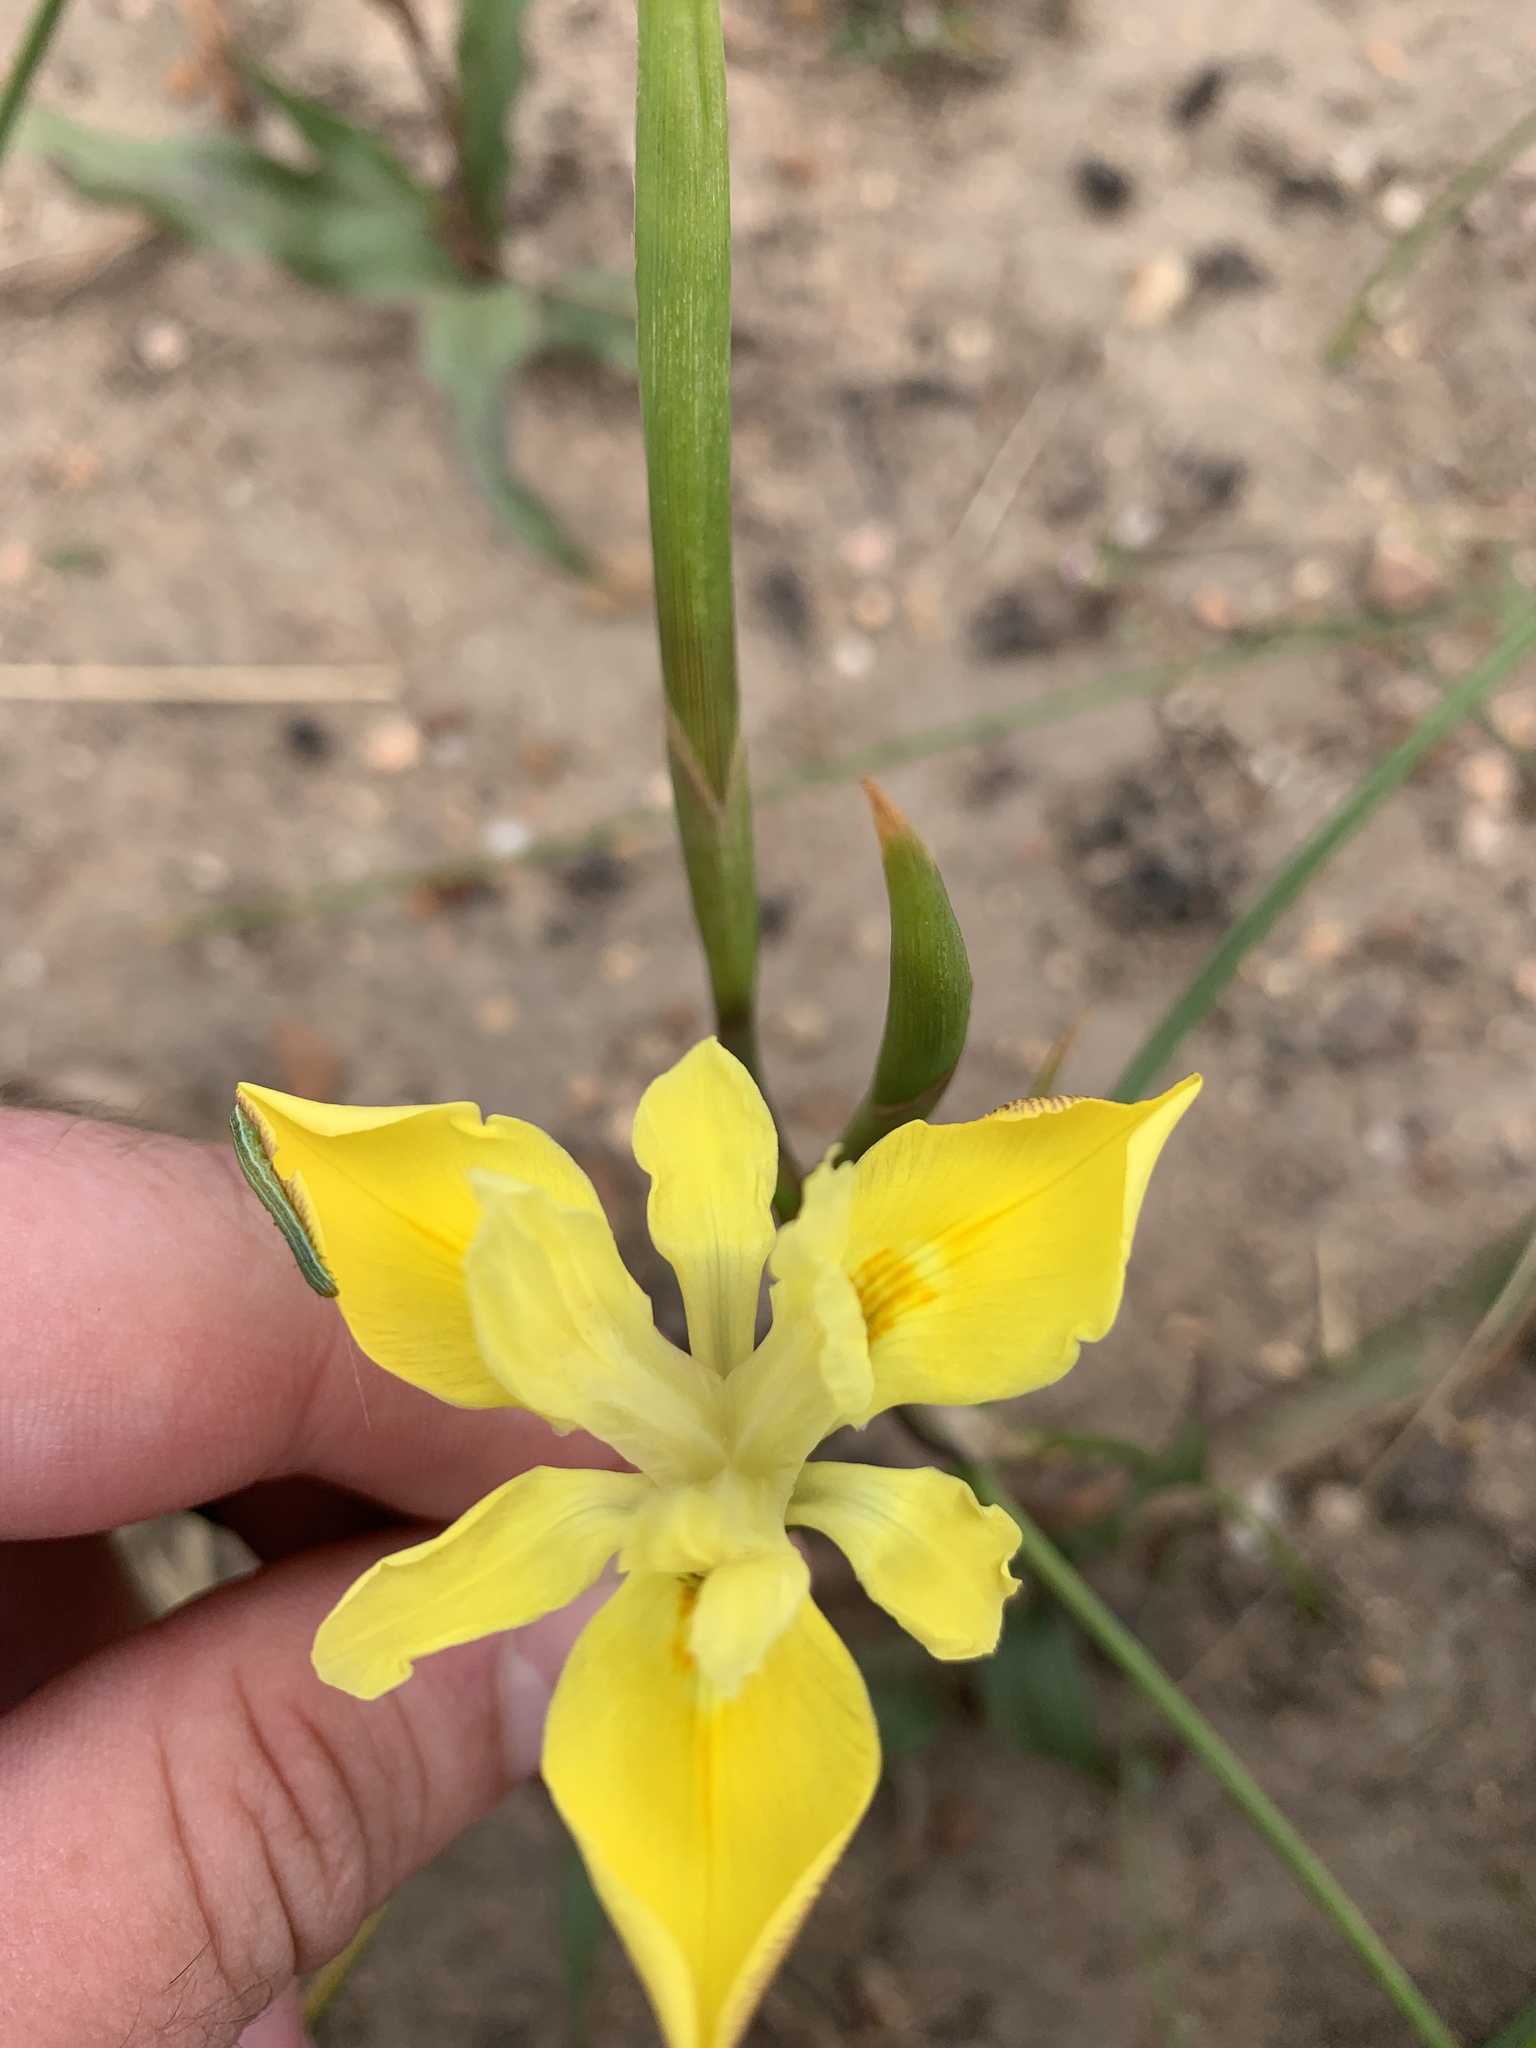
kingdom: Plantae
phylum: Tracheophyta
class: Liliopsida
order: Asparagales
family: Iridaceae
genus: Moraea
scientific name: Moraea fugax
